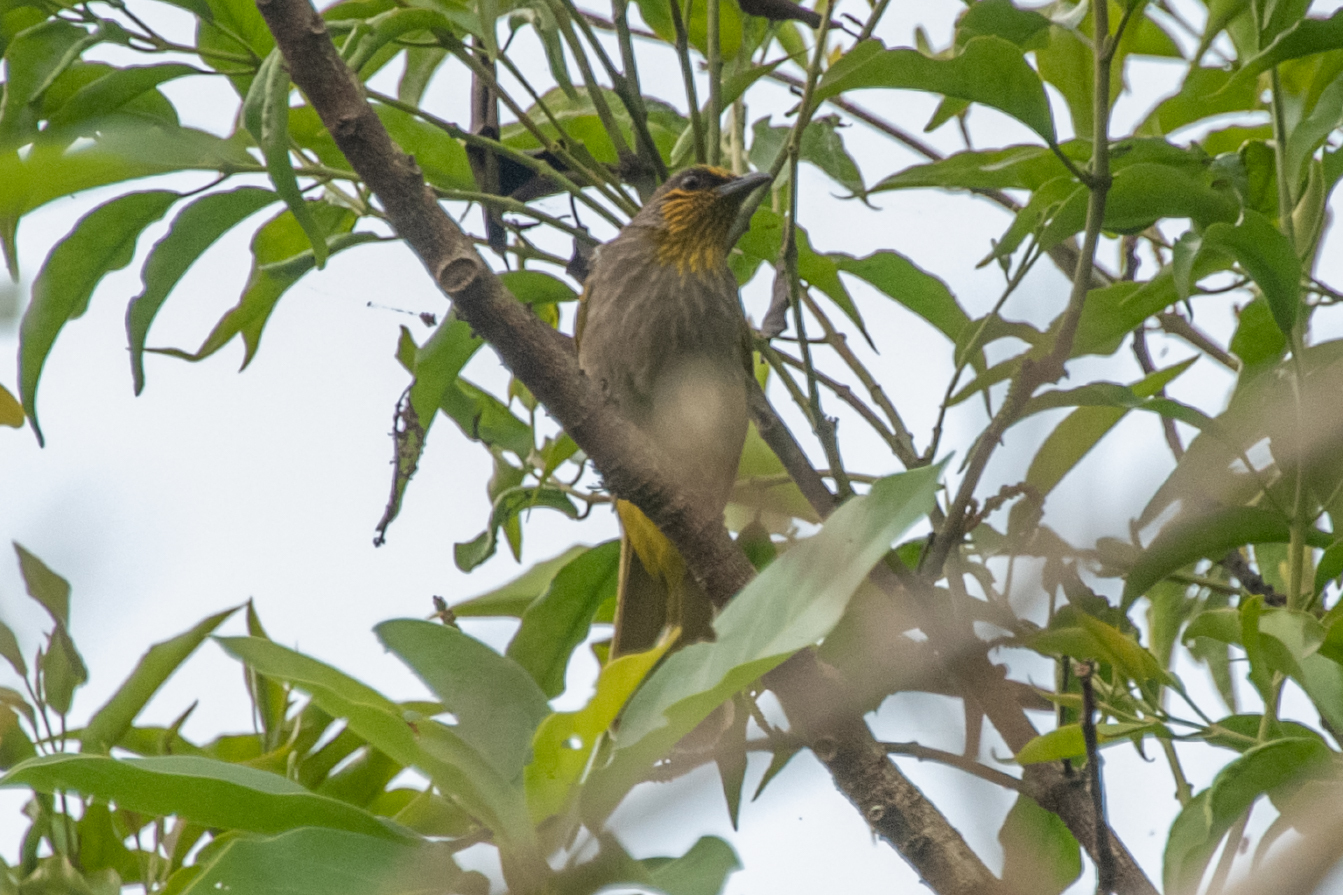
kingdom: Animalia
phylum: Chordata
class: Aves
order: Passeriformes
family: Pycnonotidae
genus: Pycnonotus
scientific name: Pycnonotus finlaysoni
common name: Stripe-throated bulbul
